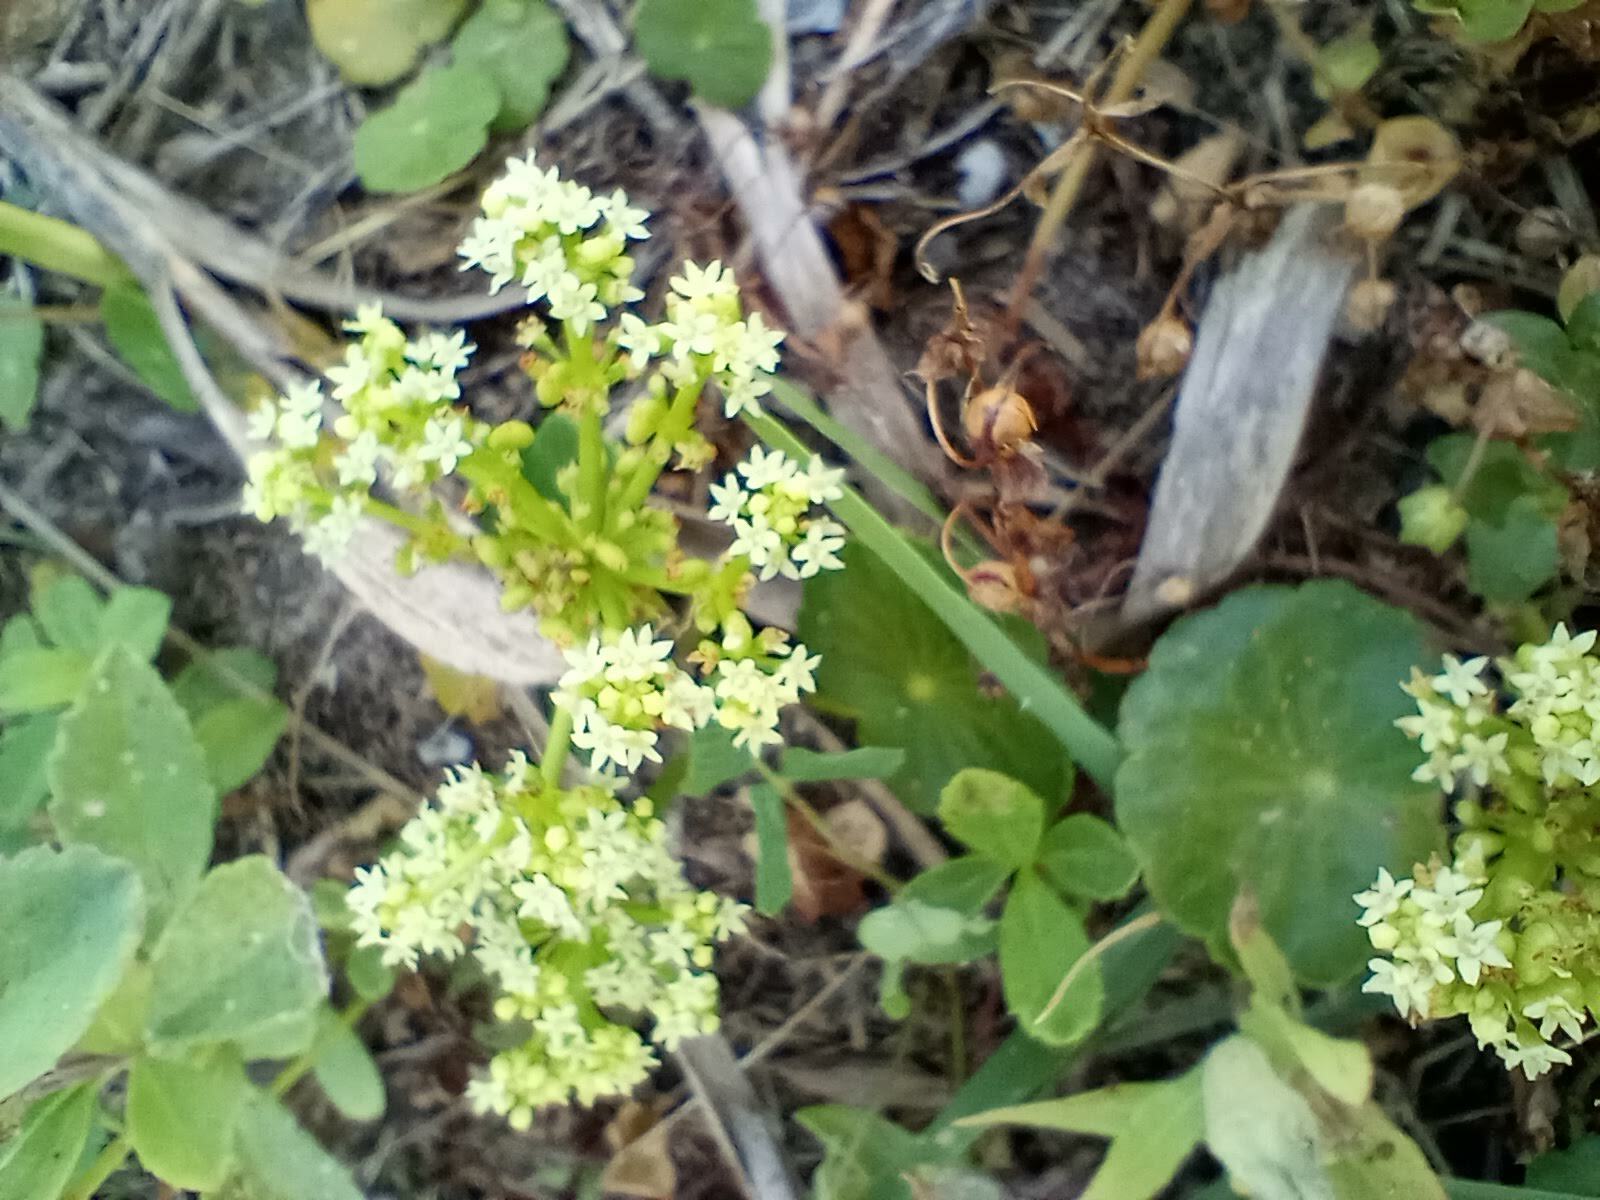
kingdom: Plantae
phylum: Tracheophyta
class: Magnoliopsida
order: Apiales
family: Araliaceae
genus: Hydrocotyle
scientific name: Hydrocotyle bonariensis
